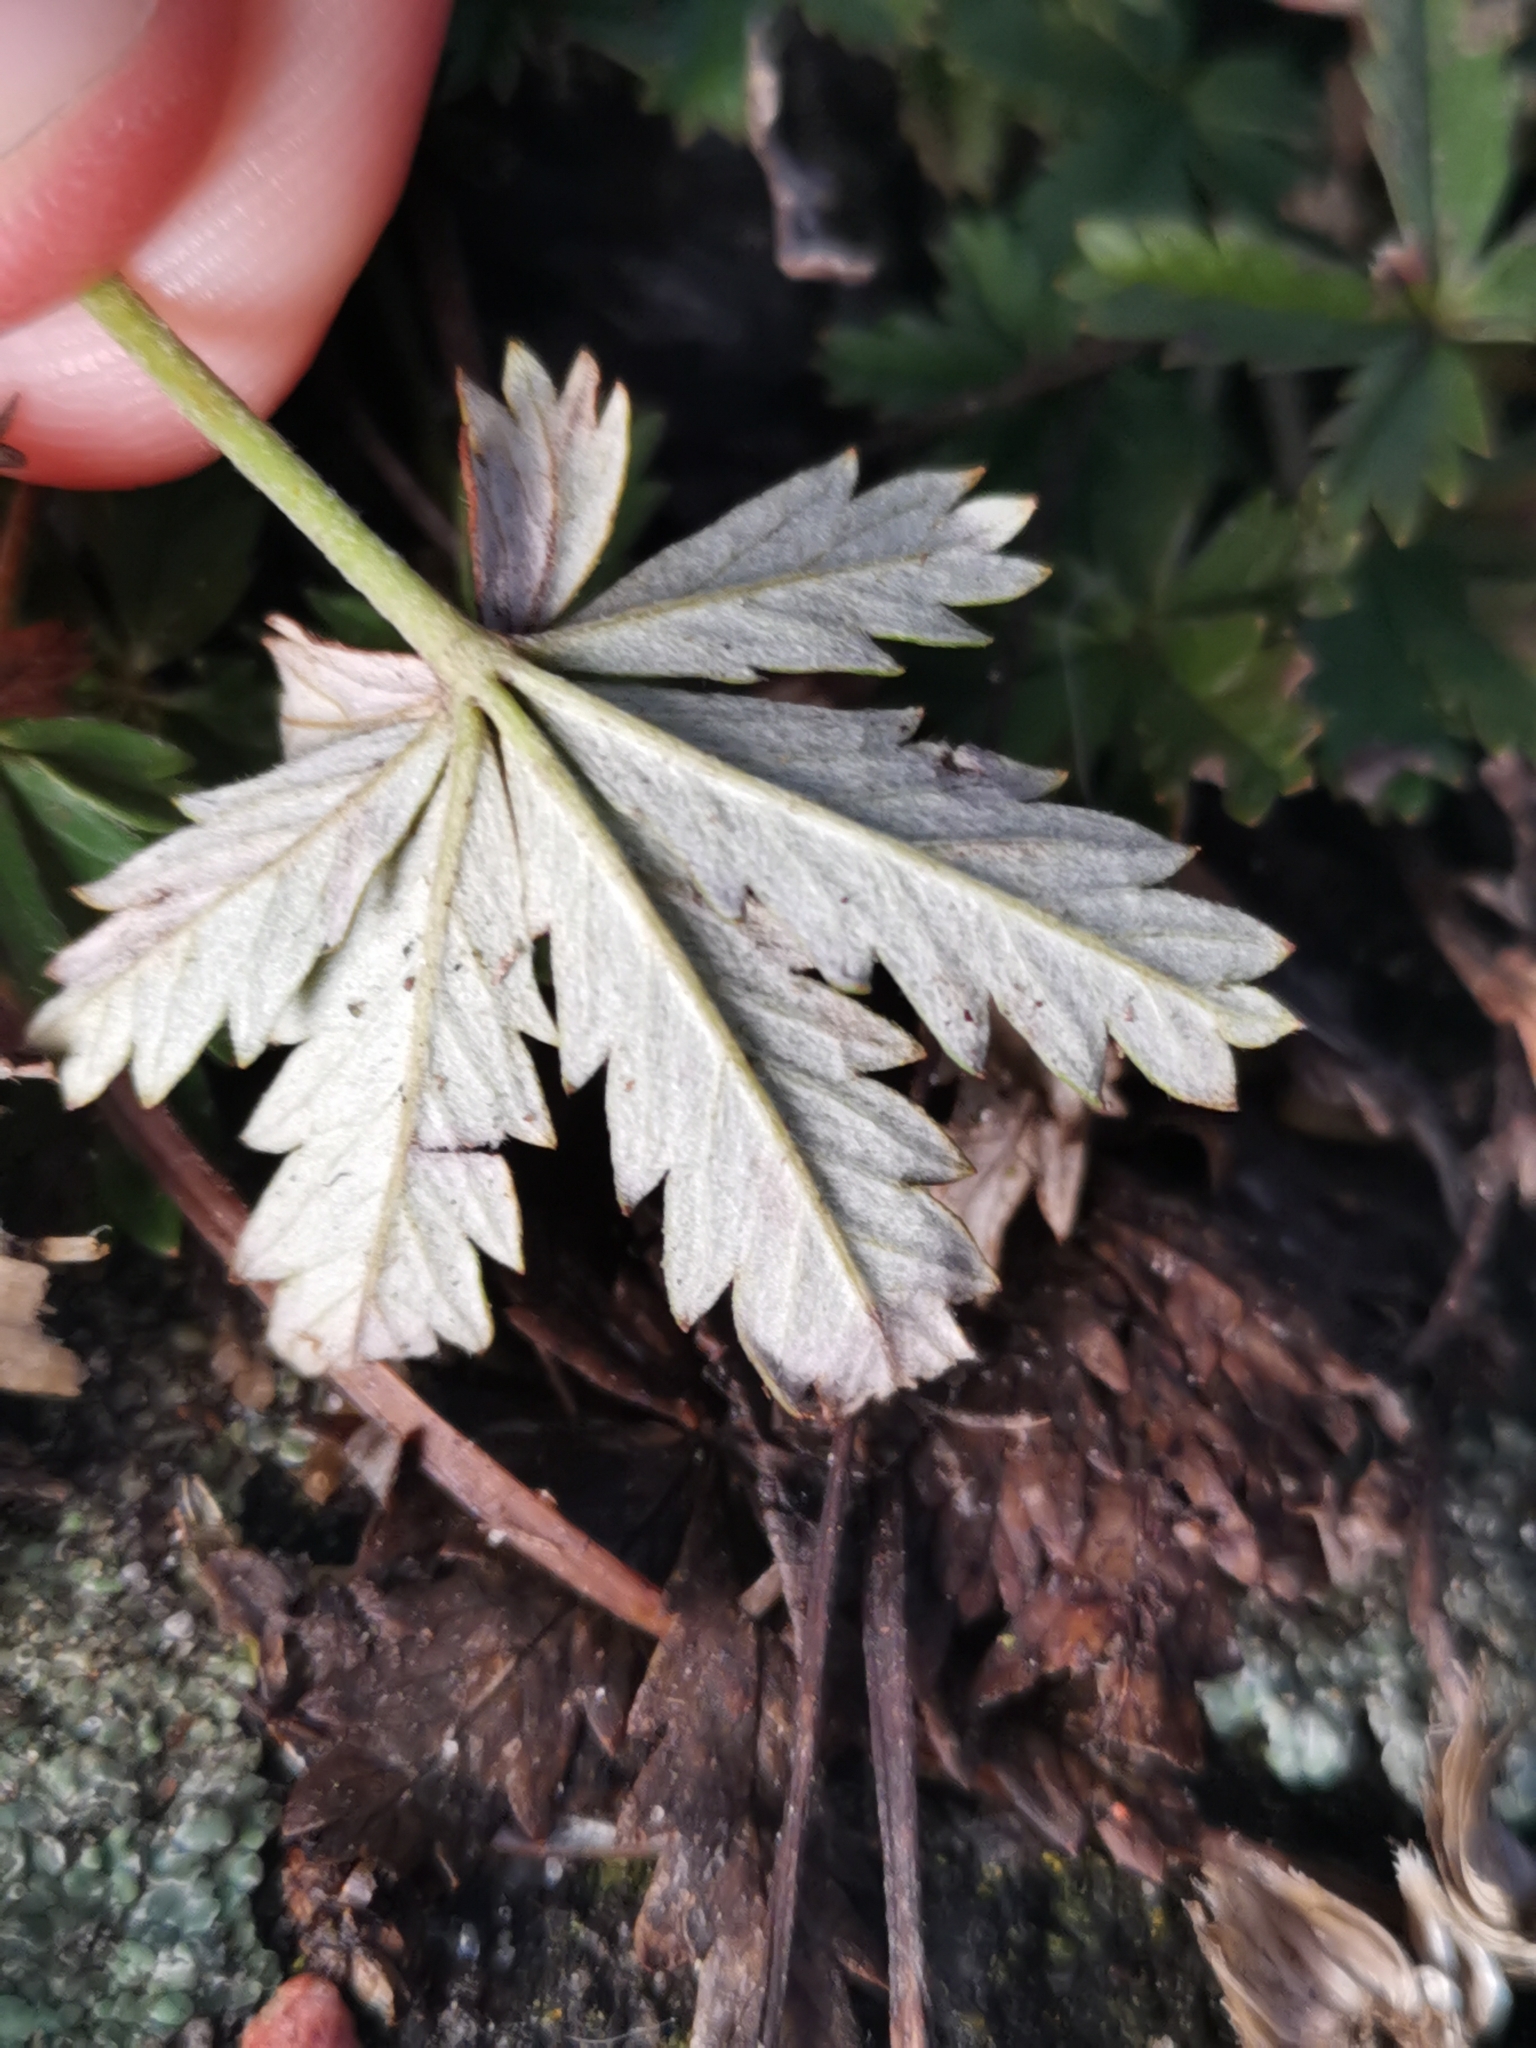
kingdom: Plantae
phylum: Tracheophyta
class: Magnoliopsida
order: Rosales
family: Rosaceae
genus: Potentilla
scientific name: Potentilla argentea
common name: Hoary cinquefoil
